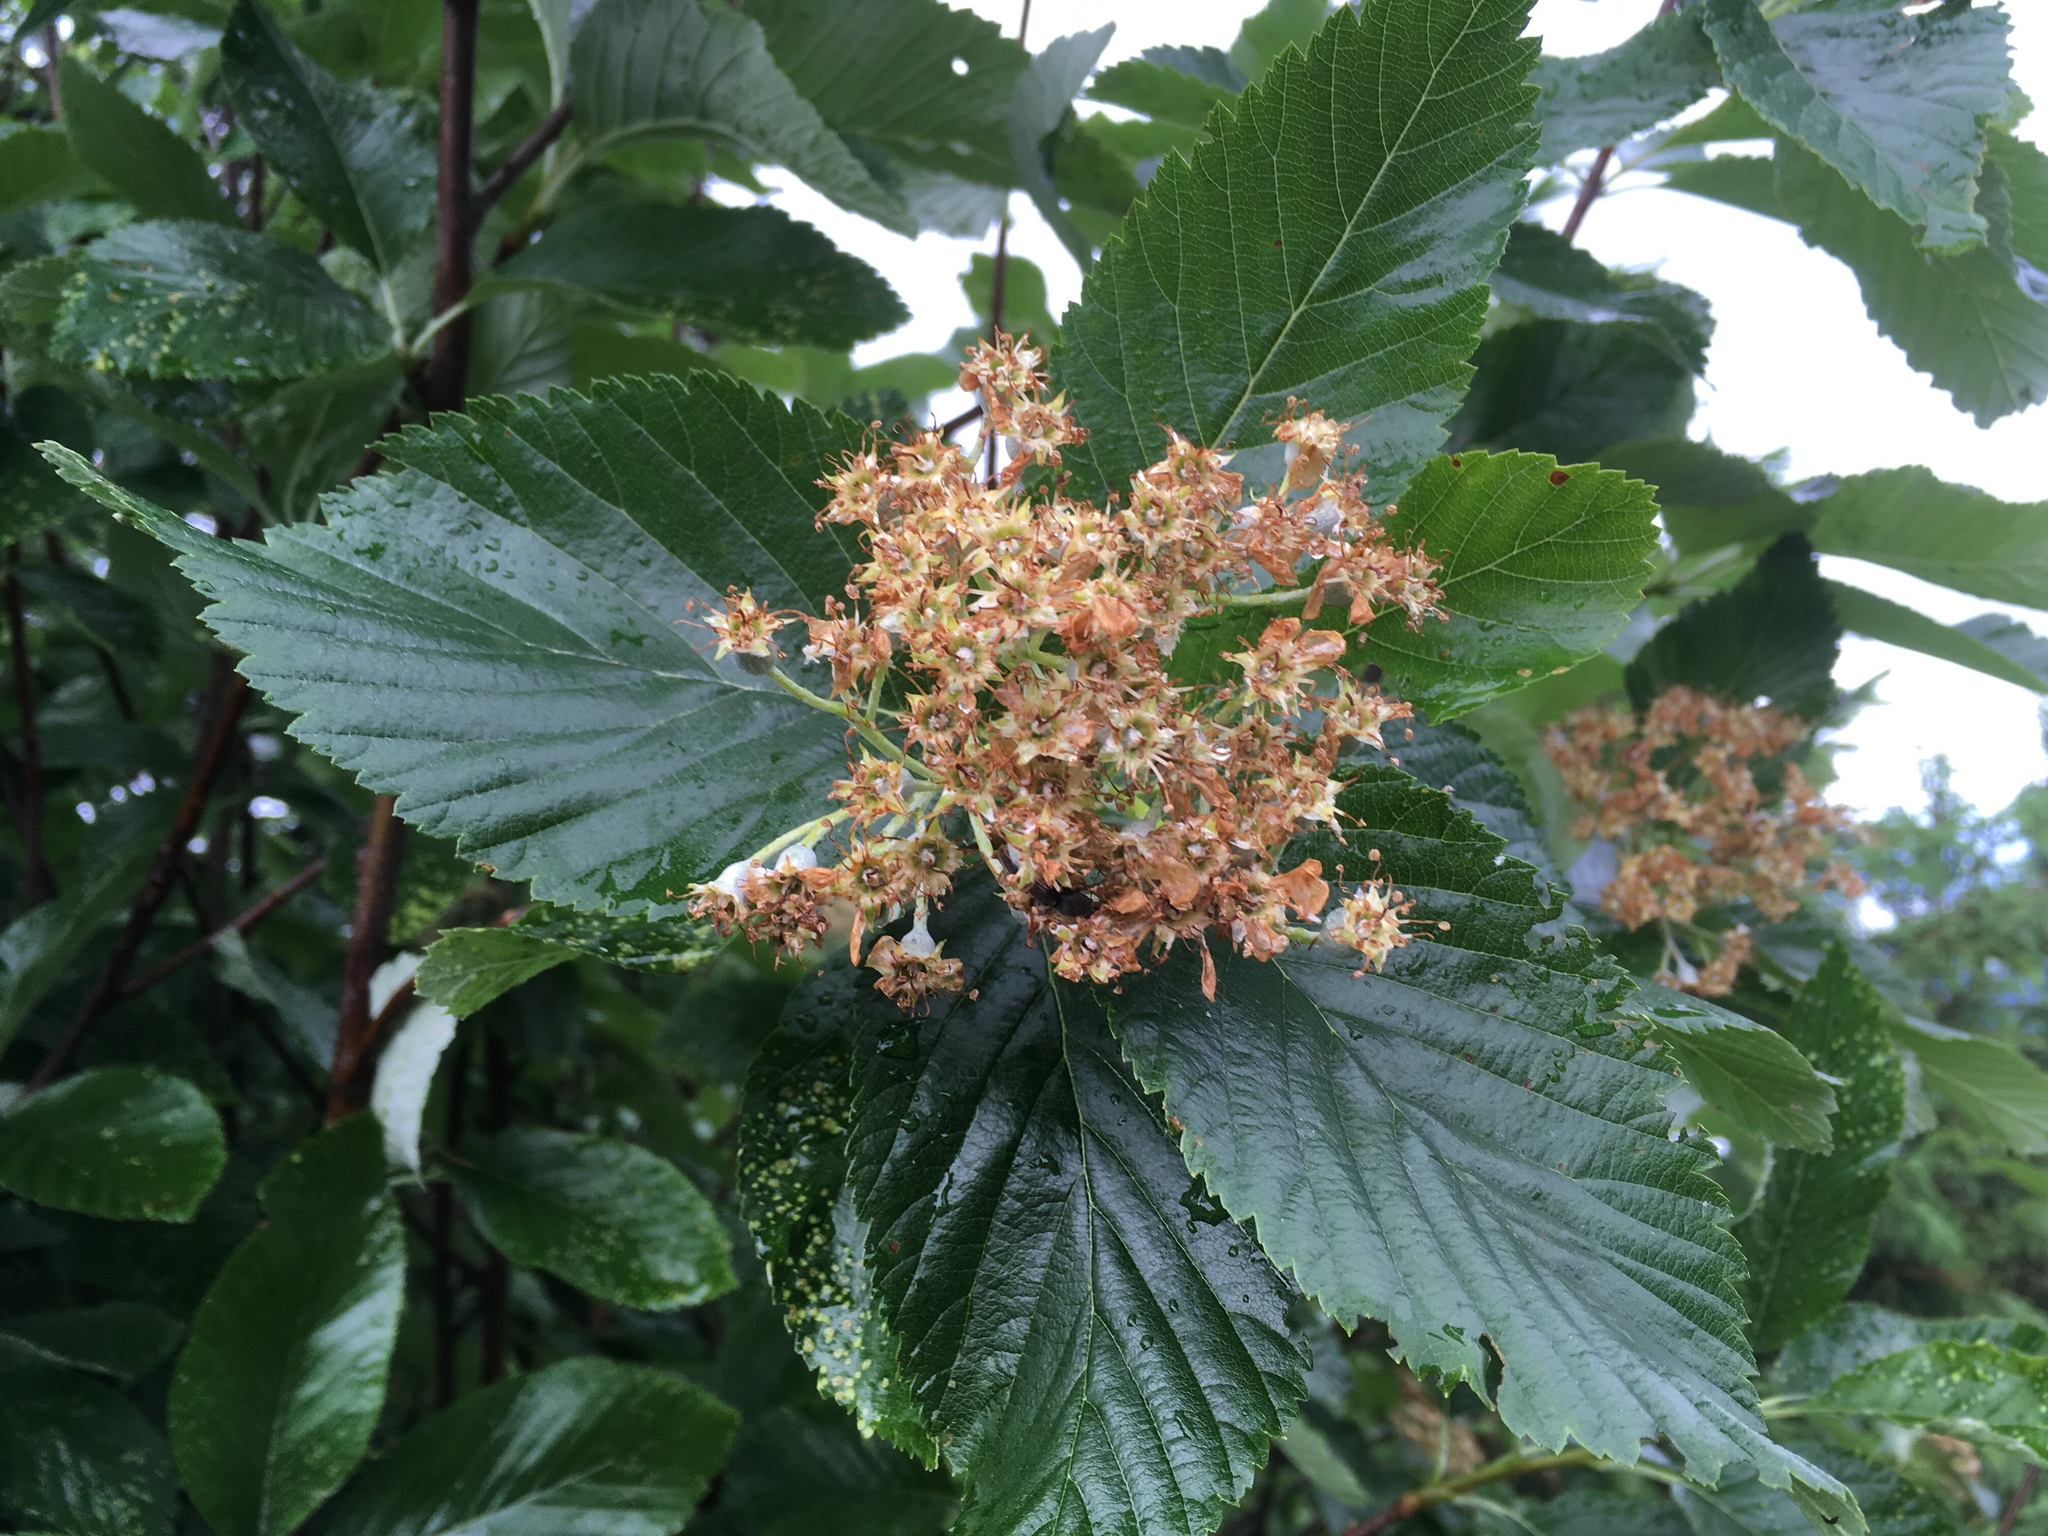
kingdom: Plantae
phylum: Tracheophyta
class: Magnoliopsida
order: Rosales
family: Rosaceae
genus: Aria
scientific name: Aria edulis
